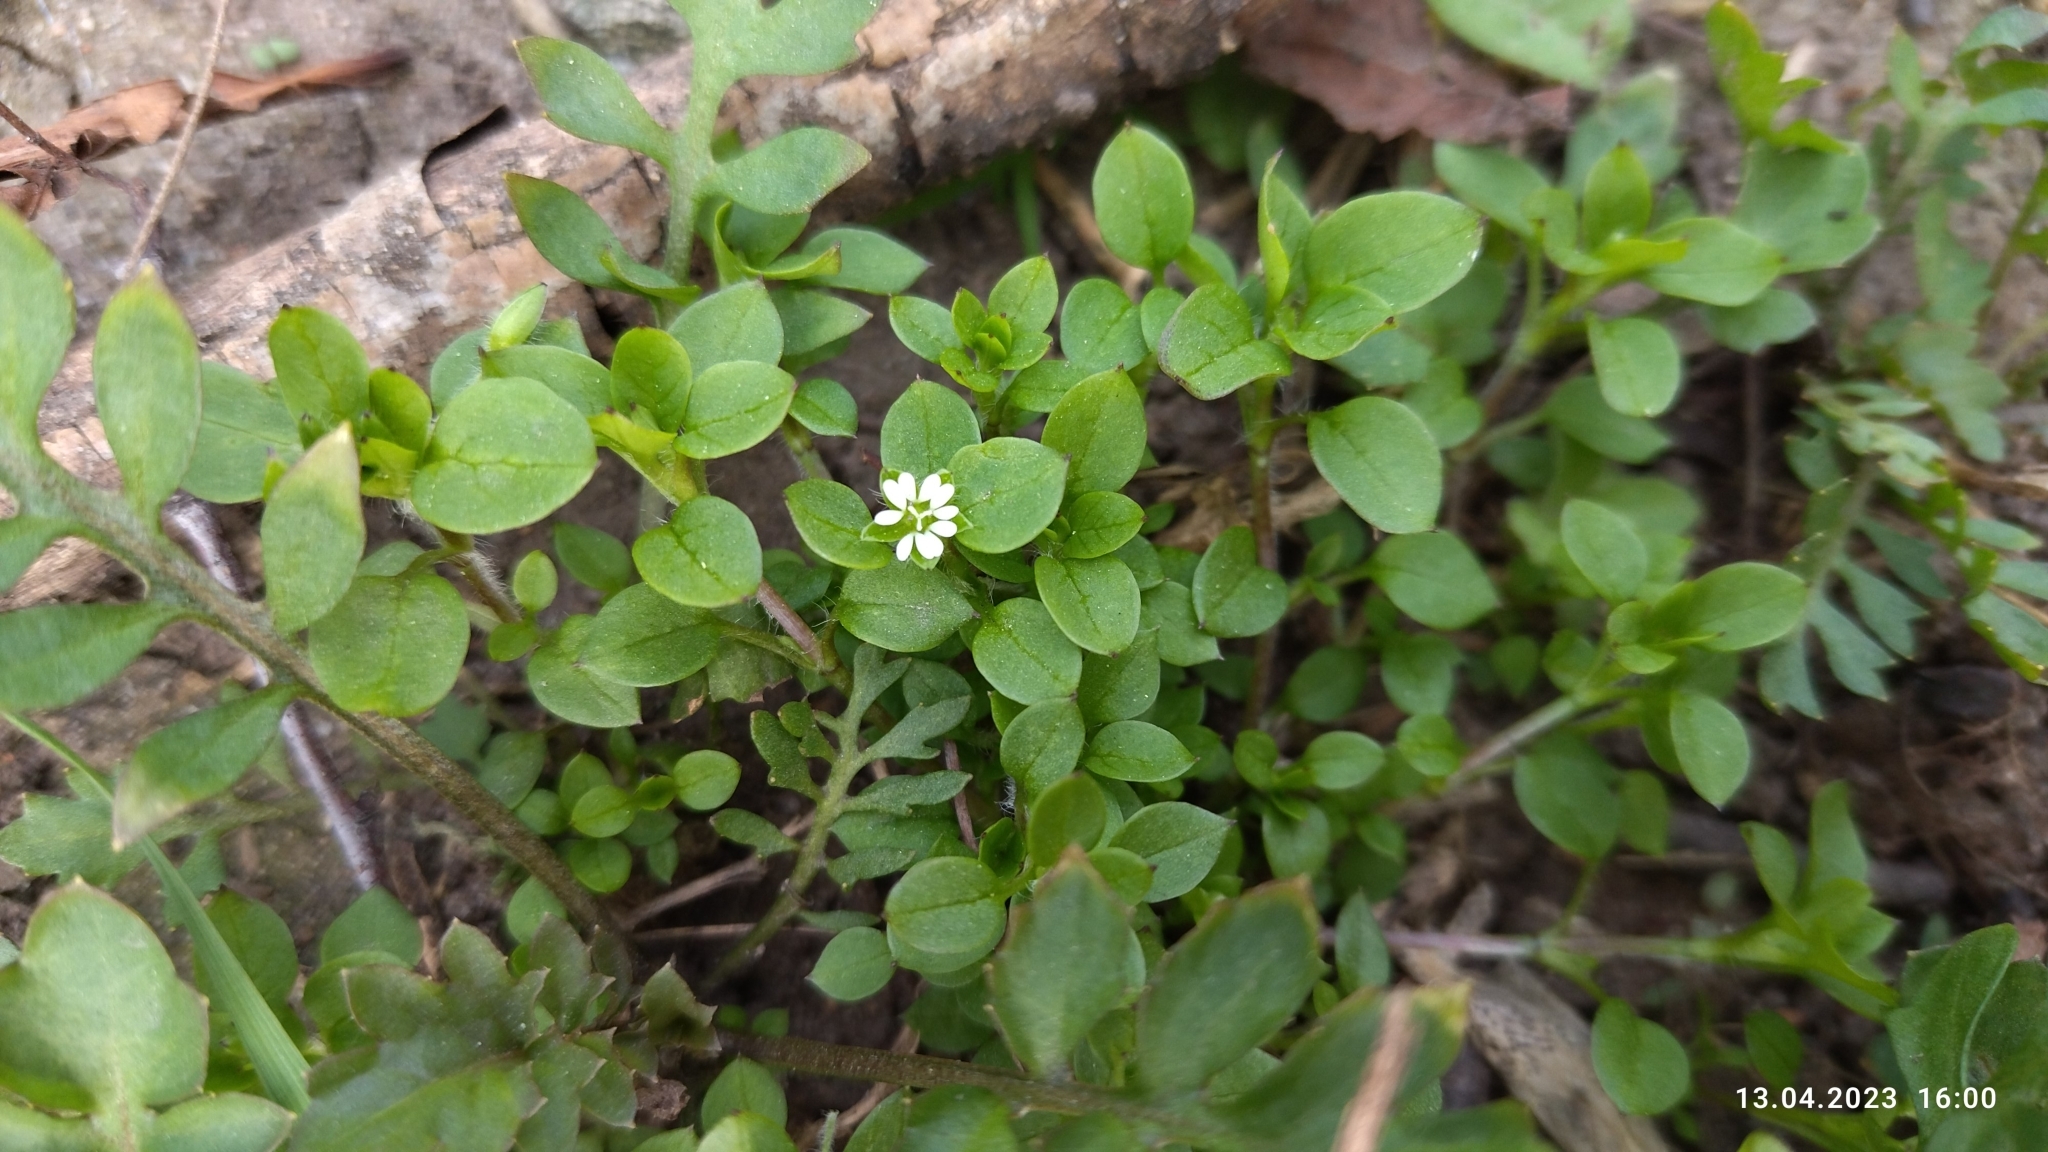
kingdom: Plantae
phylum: Tracheophyta
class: Magnoliopsida
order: Caryophyllales
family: Caryophyllaceae
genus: Stellaria
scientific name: Stellaria media
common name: Common chickweed
